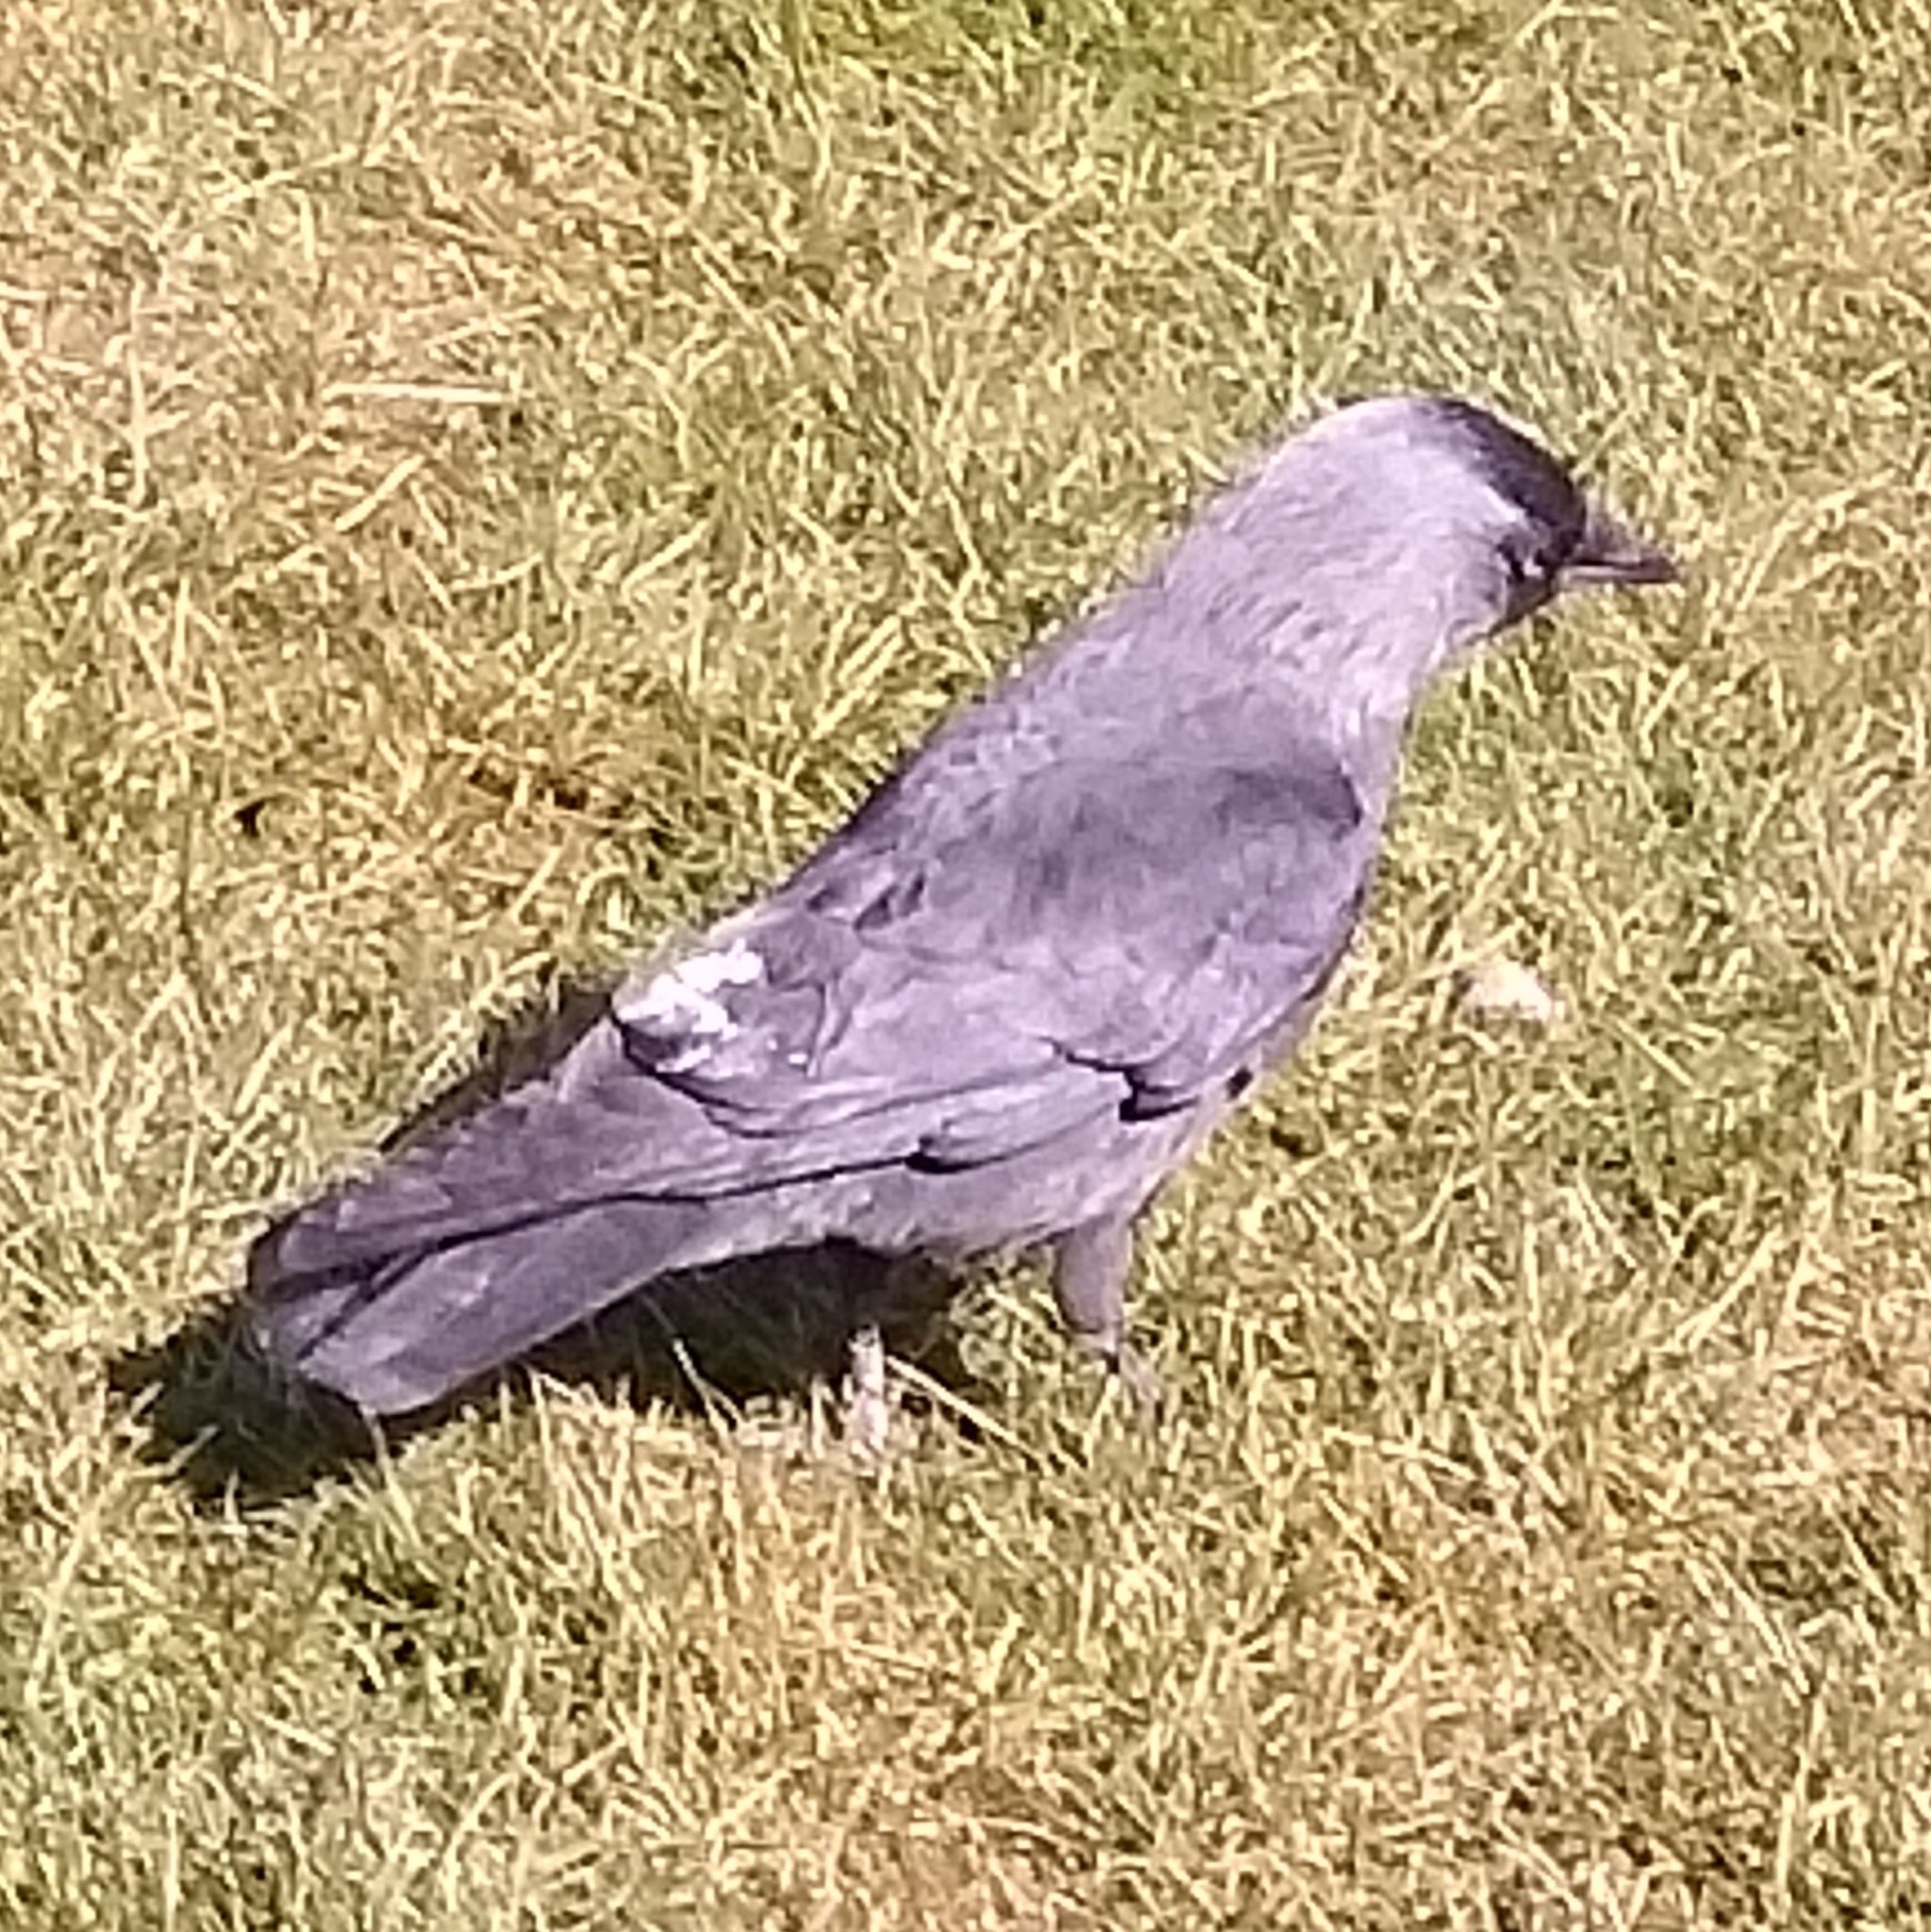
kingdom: Animalia
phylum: Chordata
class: Aves
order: Passeriformes
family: Corvidae
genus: Coloeus
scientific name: Coloeus monedula
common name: Western jackdaw
